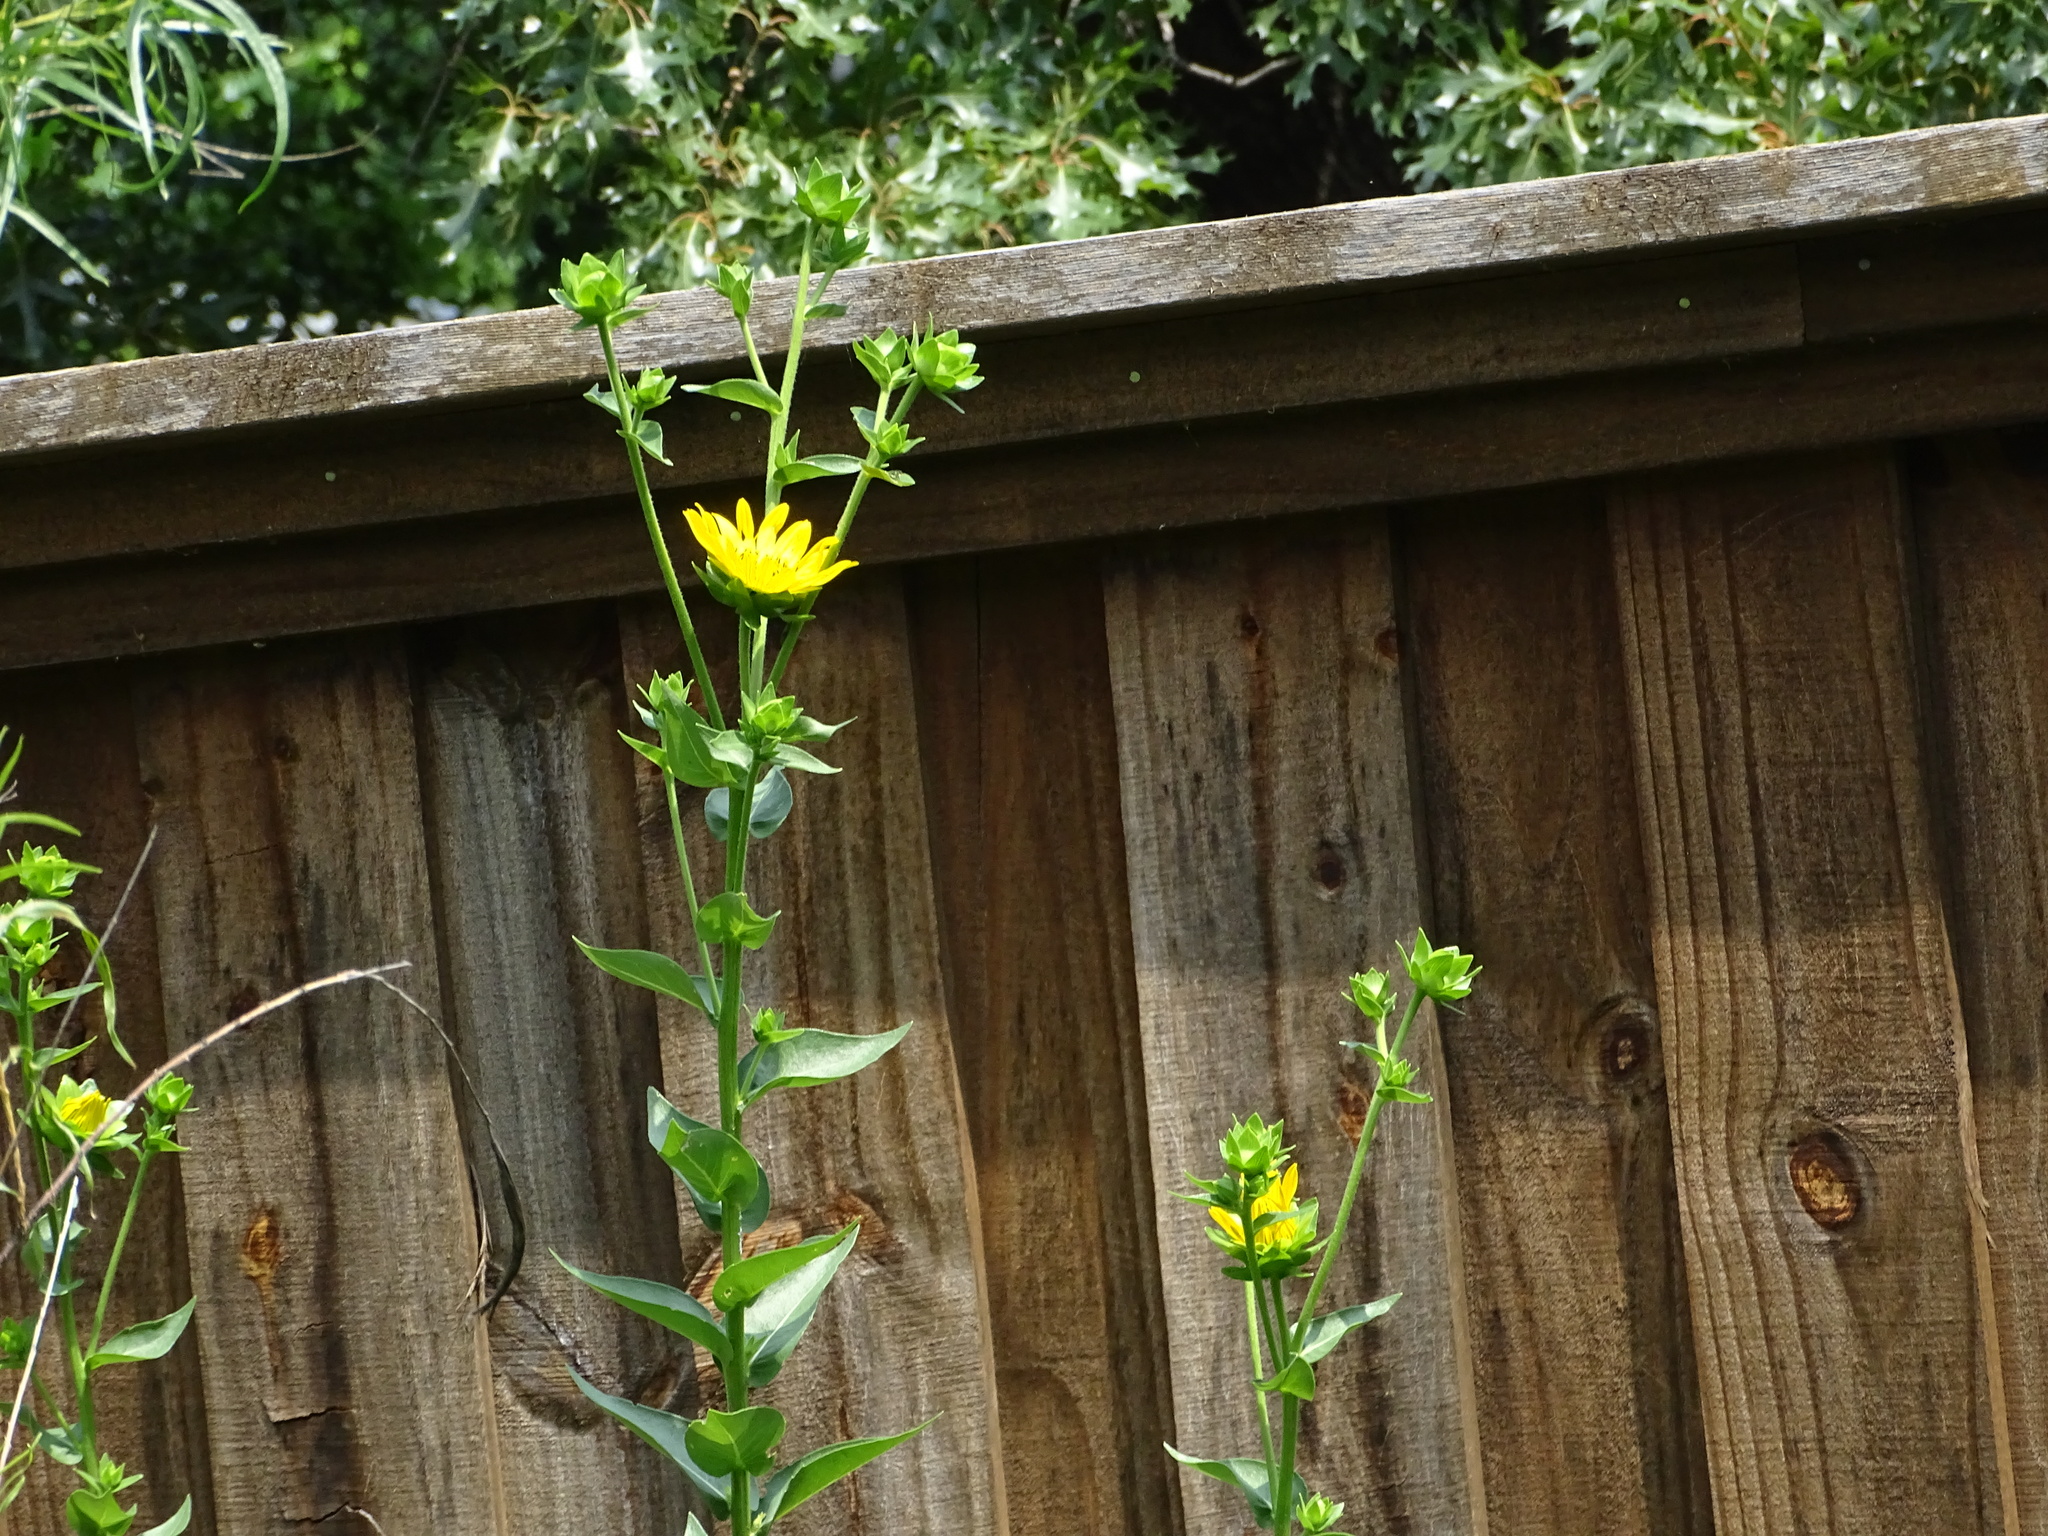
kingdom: Plantae
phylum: Tracheophyta
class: Magnoliopsida
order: Asterales
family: Asteraceae
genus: Silphium
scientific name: Silphium radula
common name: Roughleaf rosinweed
